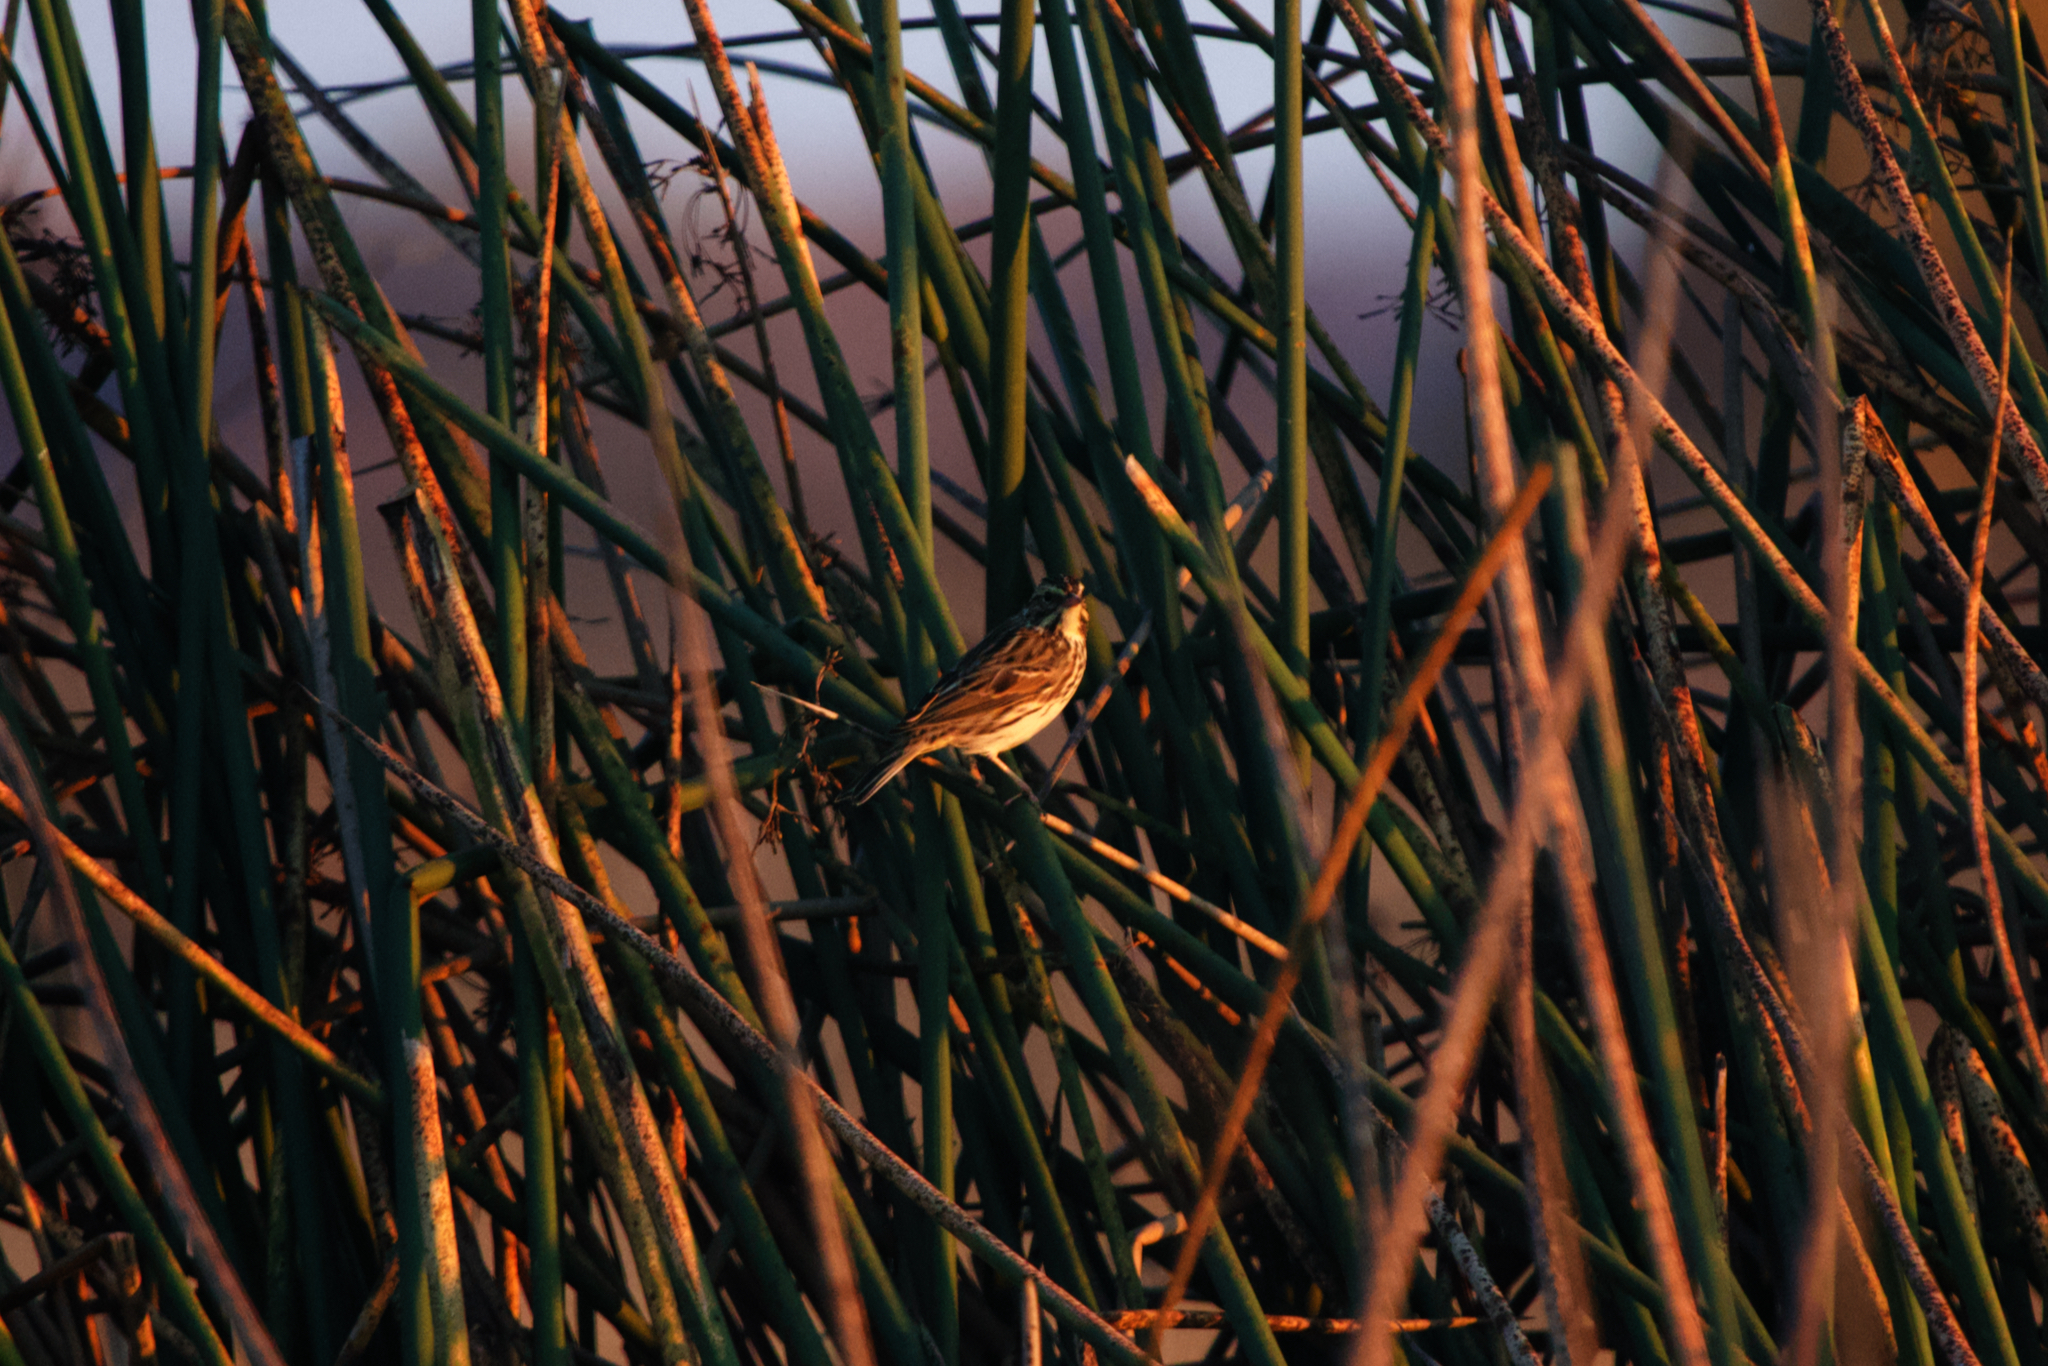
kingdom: Animalia
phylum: Chordata
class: Aves
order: Passeriformes
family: Passerellidae
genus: Passerculus
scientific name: Passerculus sandwichensis
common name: Savannah sparrow
